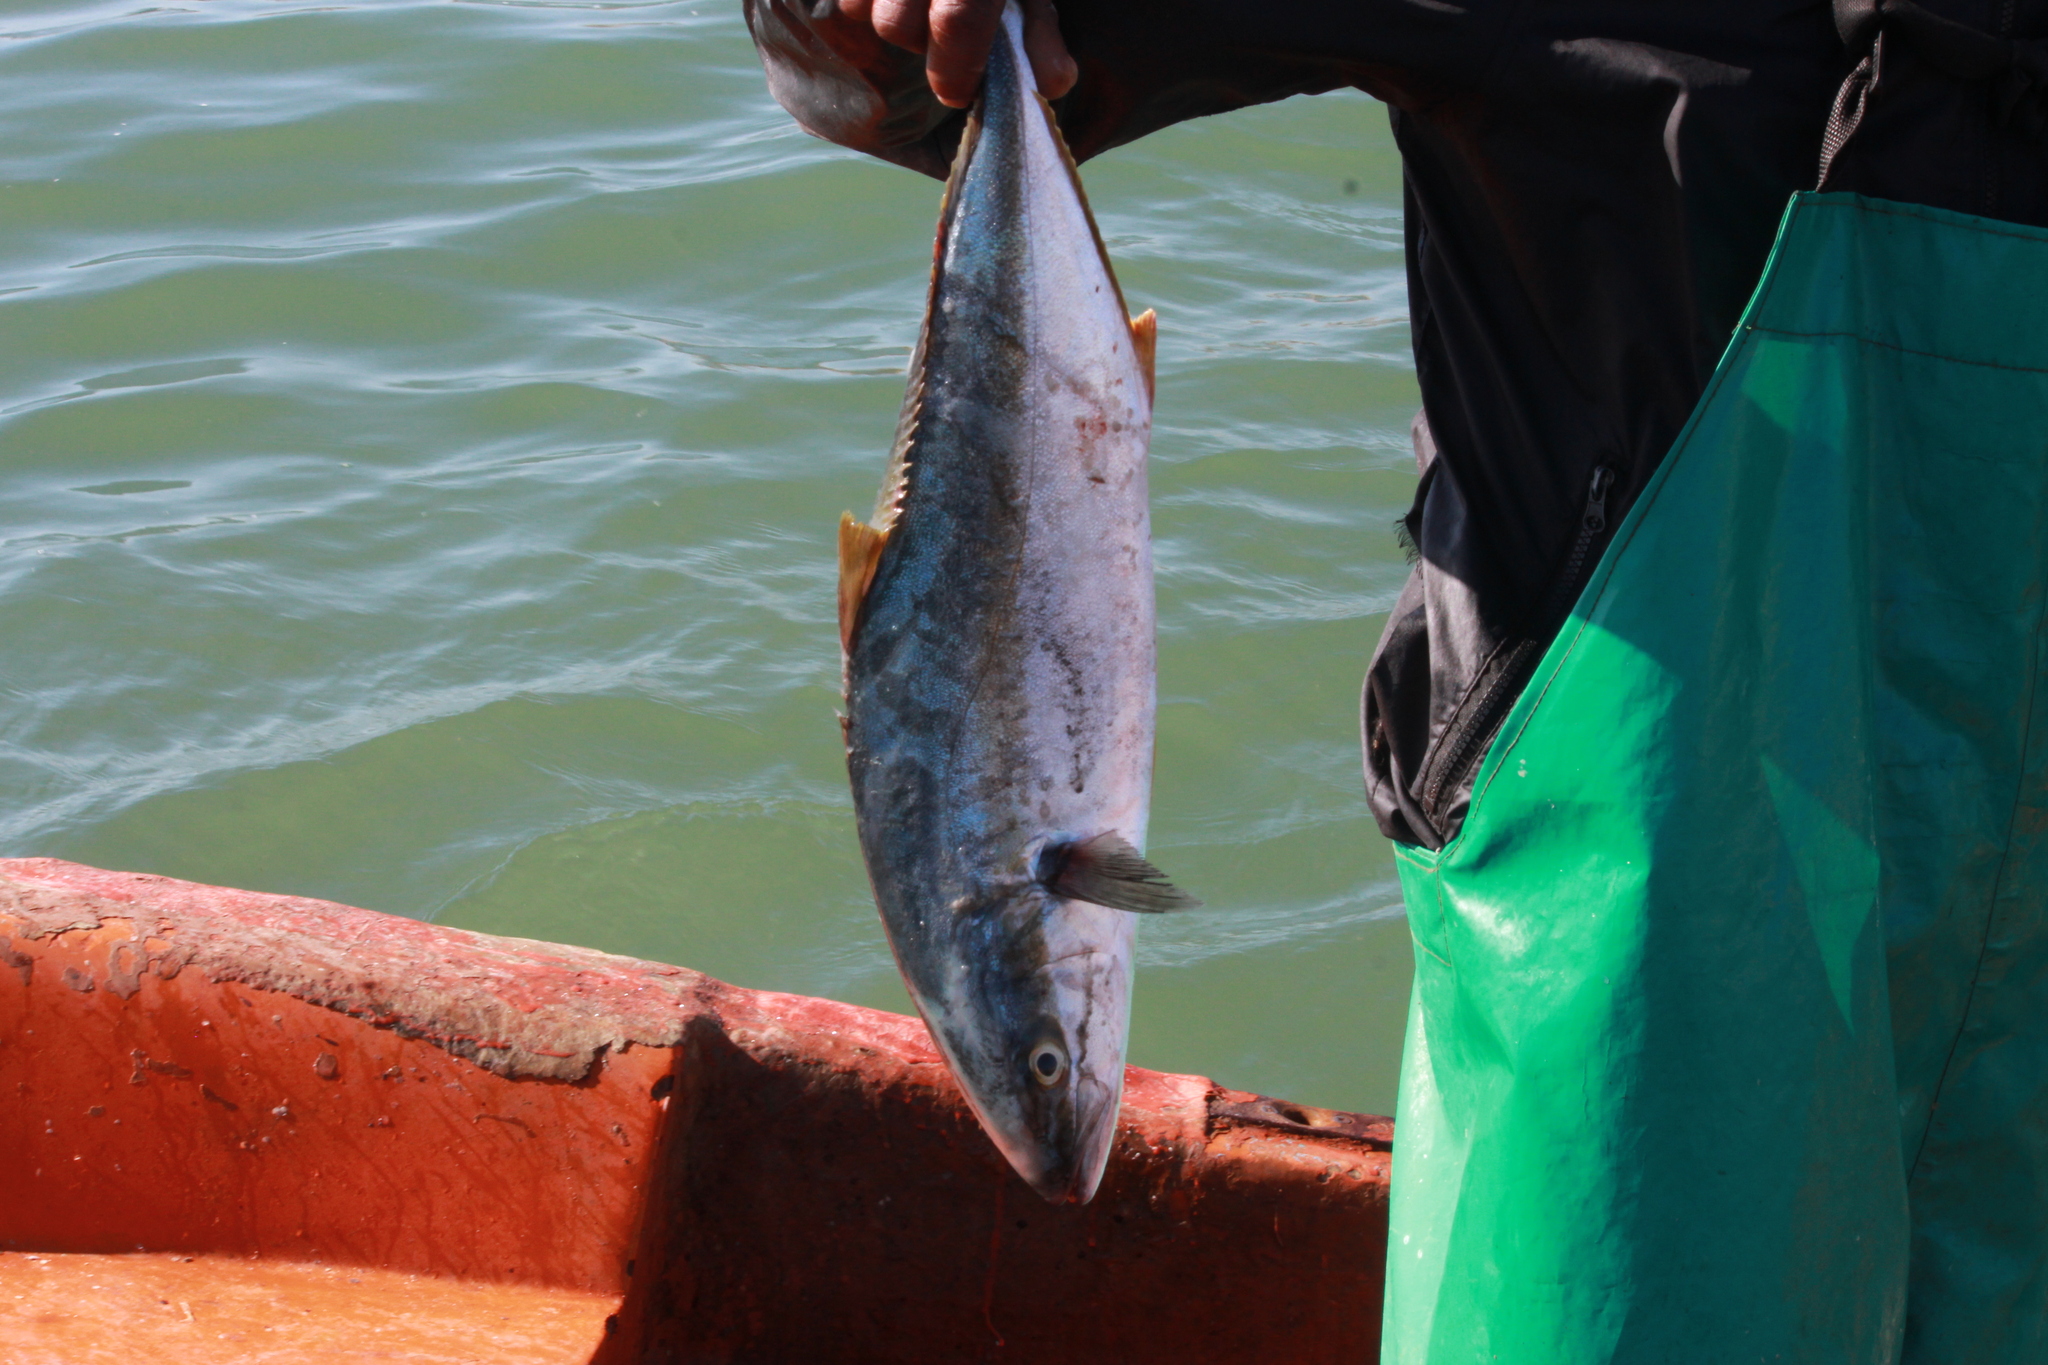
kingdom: Animalia
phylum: Chordata
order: Perciformes
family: Carangidae
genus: Seriola
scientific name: Seriola lalandi
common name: Yellowtail kingfish
